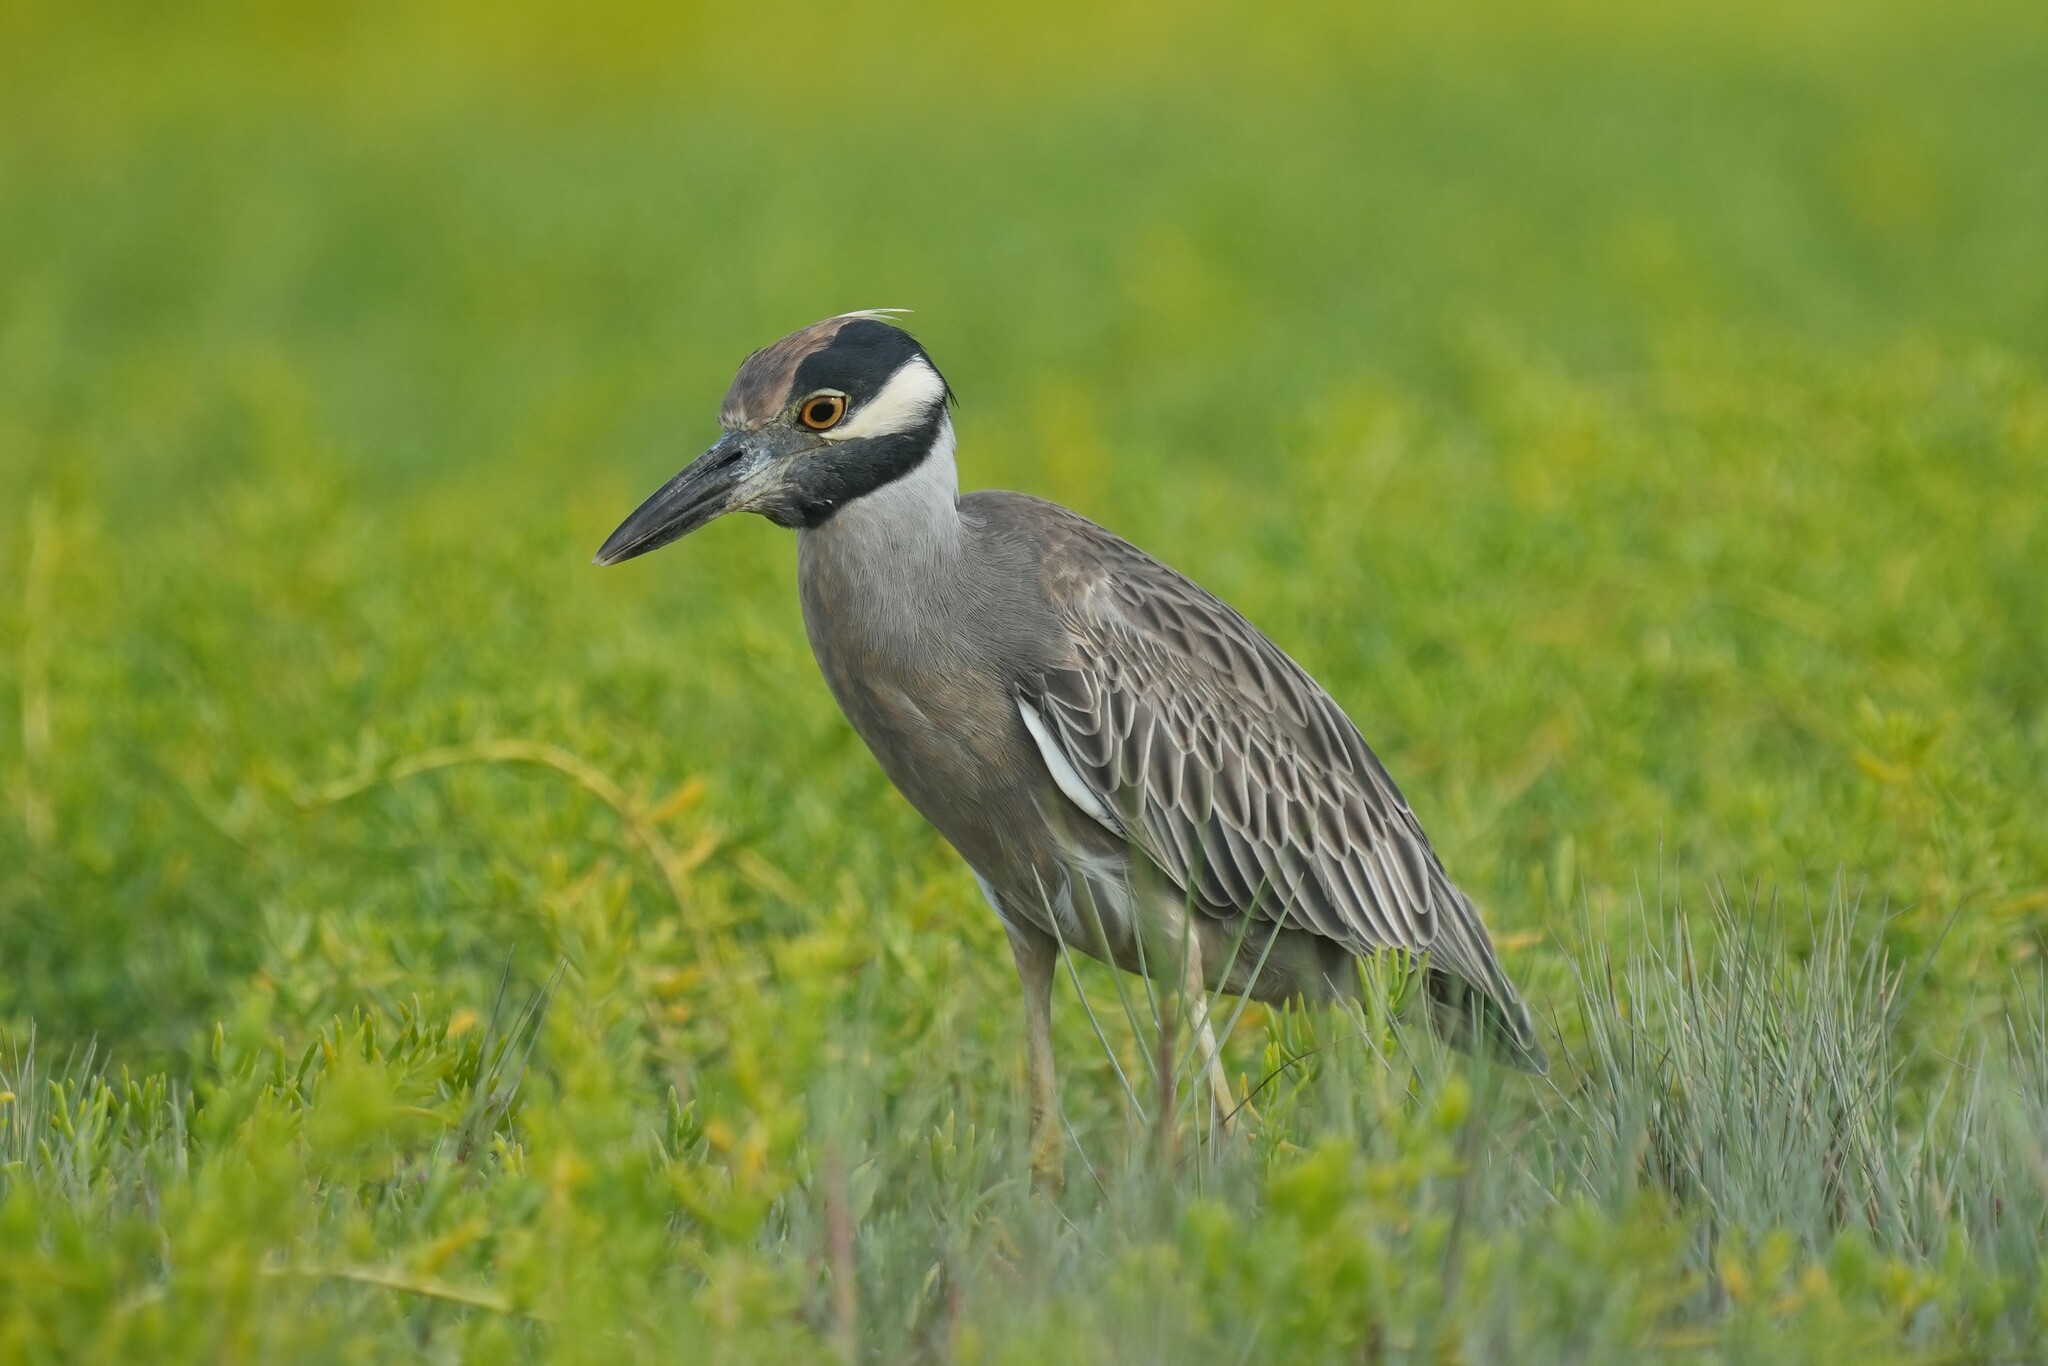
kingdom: Animalia
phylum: Chordata
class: Aves
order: Pelecaniformes
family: Ardeidae
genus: Nyctanassa
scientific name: Nyctanassa violacea
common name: Yellow-crowned night heron
